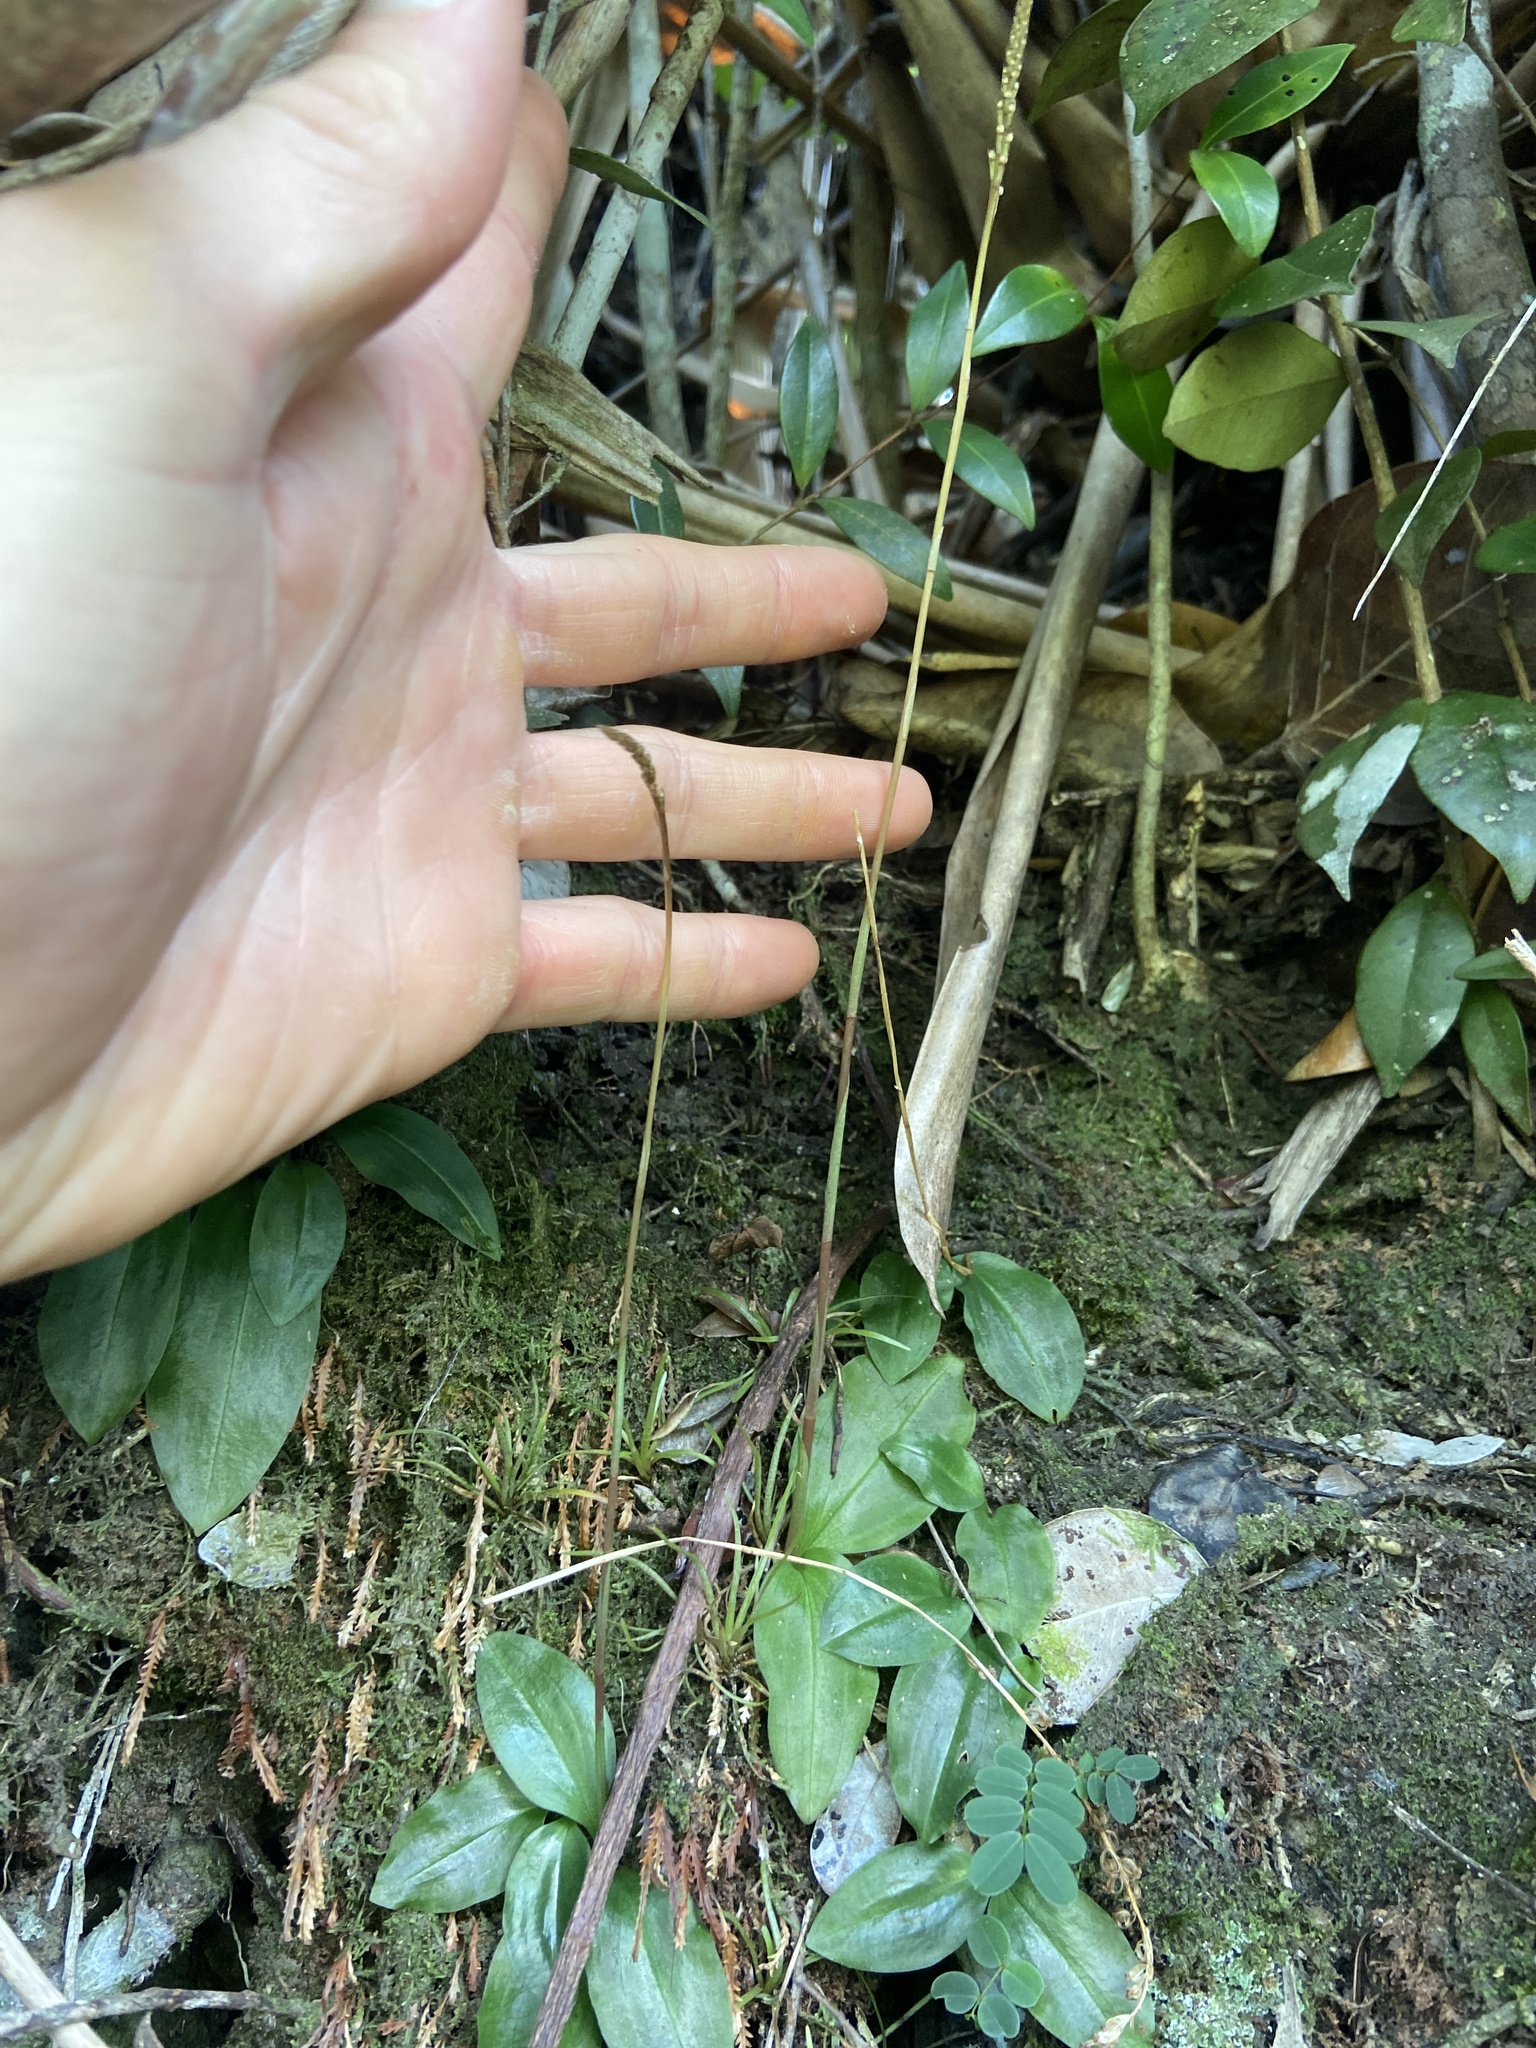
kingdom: Plantae
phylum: Tracheophyta
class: Liliopsida
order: Asparagales
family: Orchidaceae
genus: Prescottia
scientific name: Prescottia oligantha
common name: Small prescott orchid
